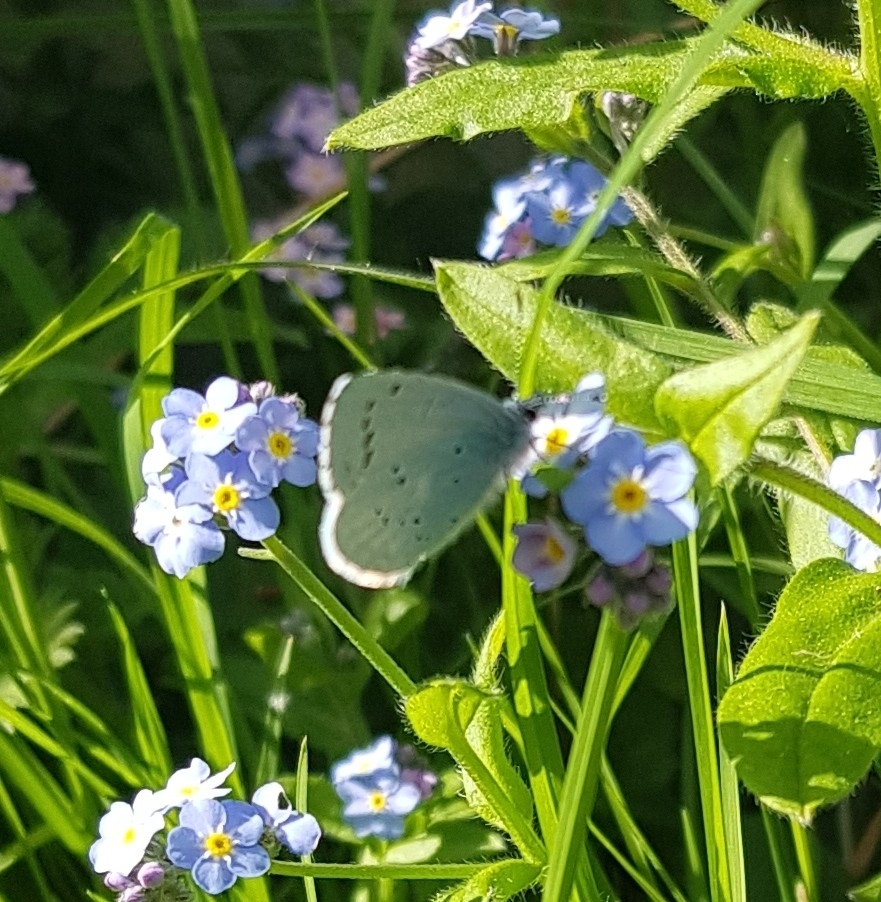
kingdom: Animalia
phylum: Arthropoda
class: Insecta
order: Lepidoptera
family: Lycaenidae
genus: Celastrina
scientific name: Celastrina argiolus
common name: Holly blue
